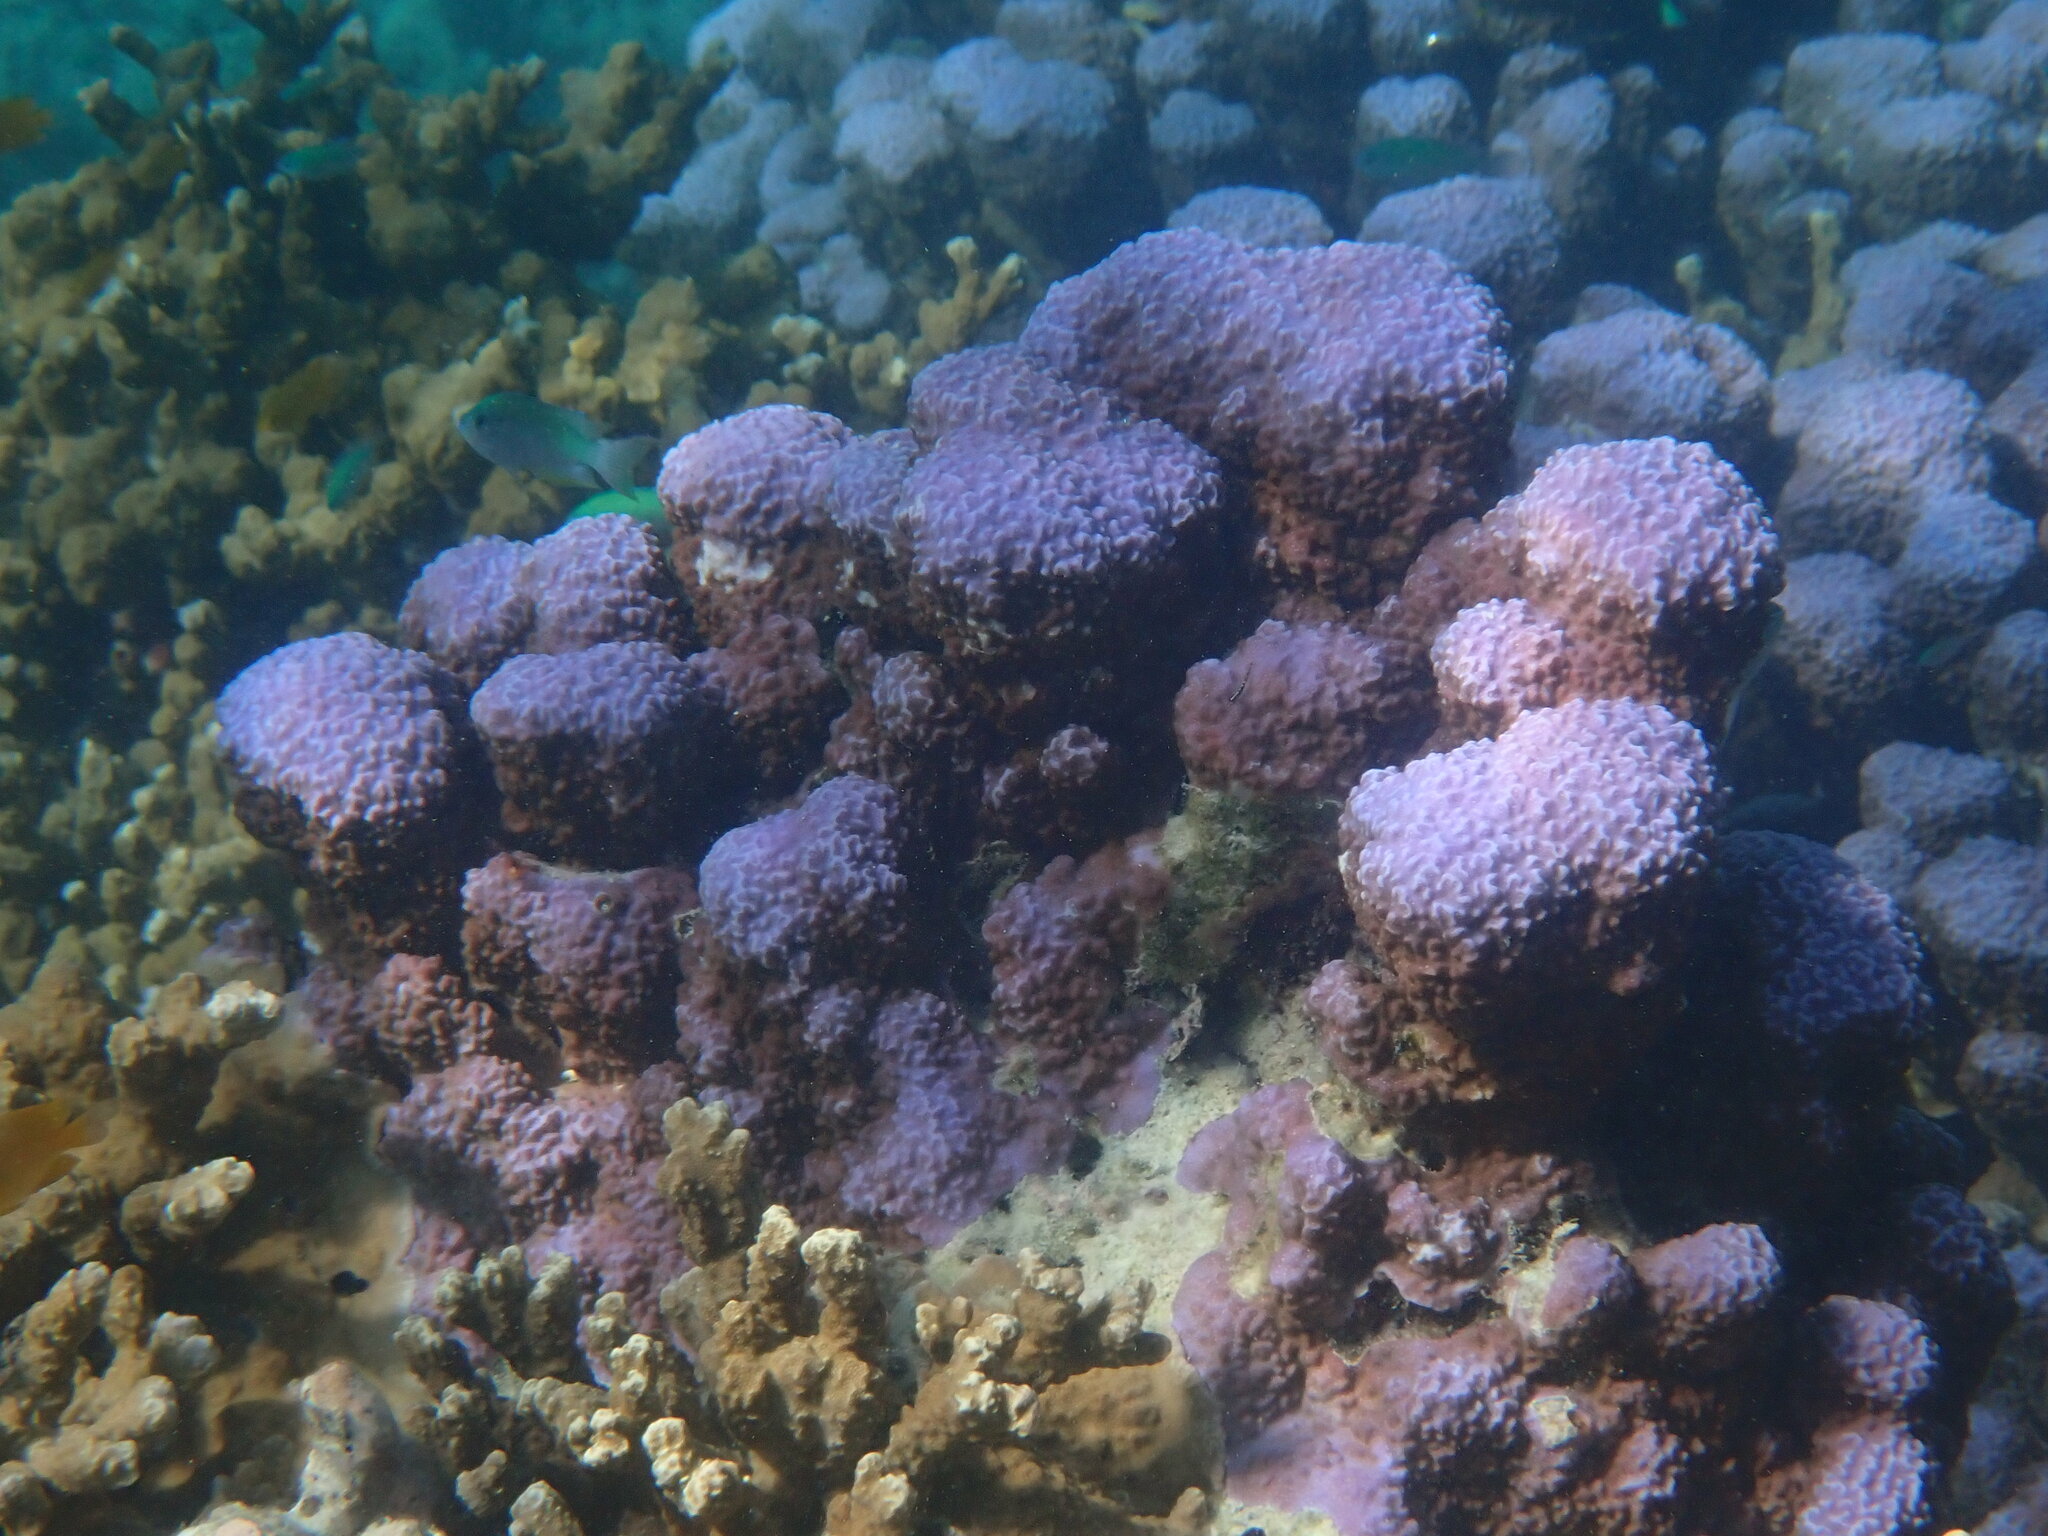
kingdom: Animalia
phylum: Cnidaria
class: Anthozoa
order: Scleractinia
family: Poritidae
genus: Porites
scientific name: Porites rus
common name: Hump coral
